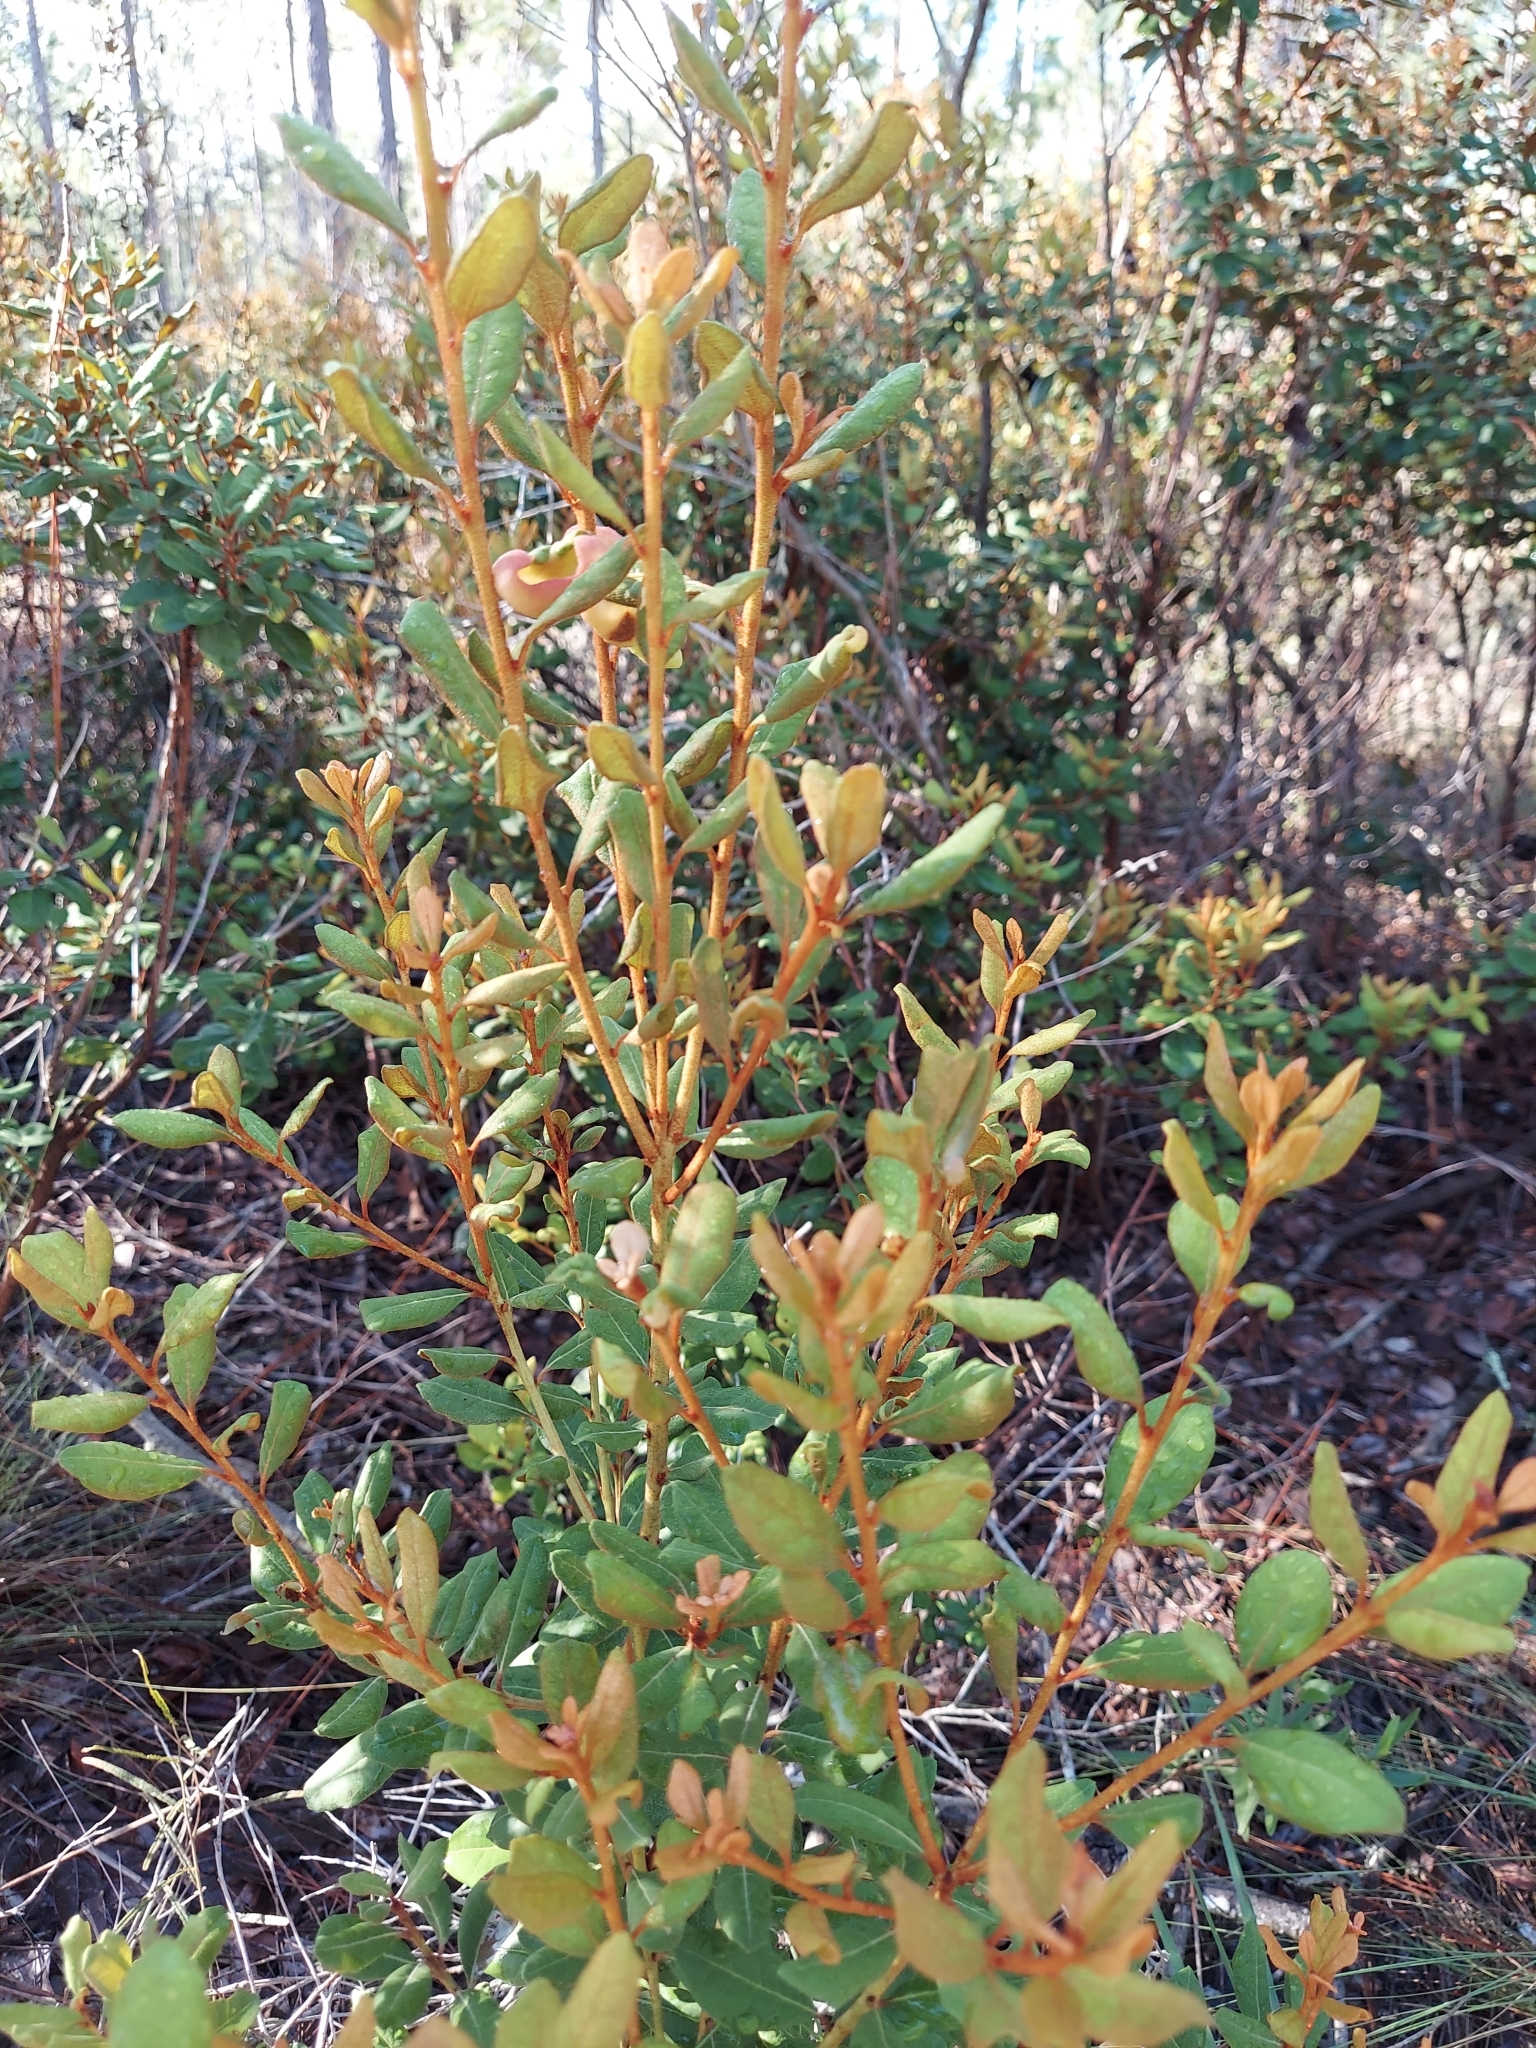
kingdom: Plantae
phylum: Tracheophyta
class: Magnoliopsida
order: Ericales
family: Ericaceae
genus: Lyonia
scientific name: Lyonia ferruginea
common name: Rusty lyonia
